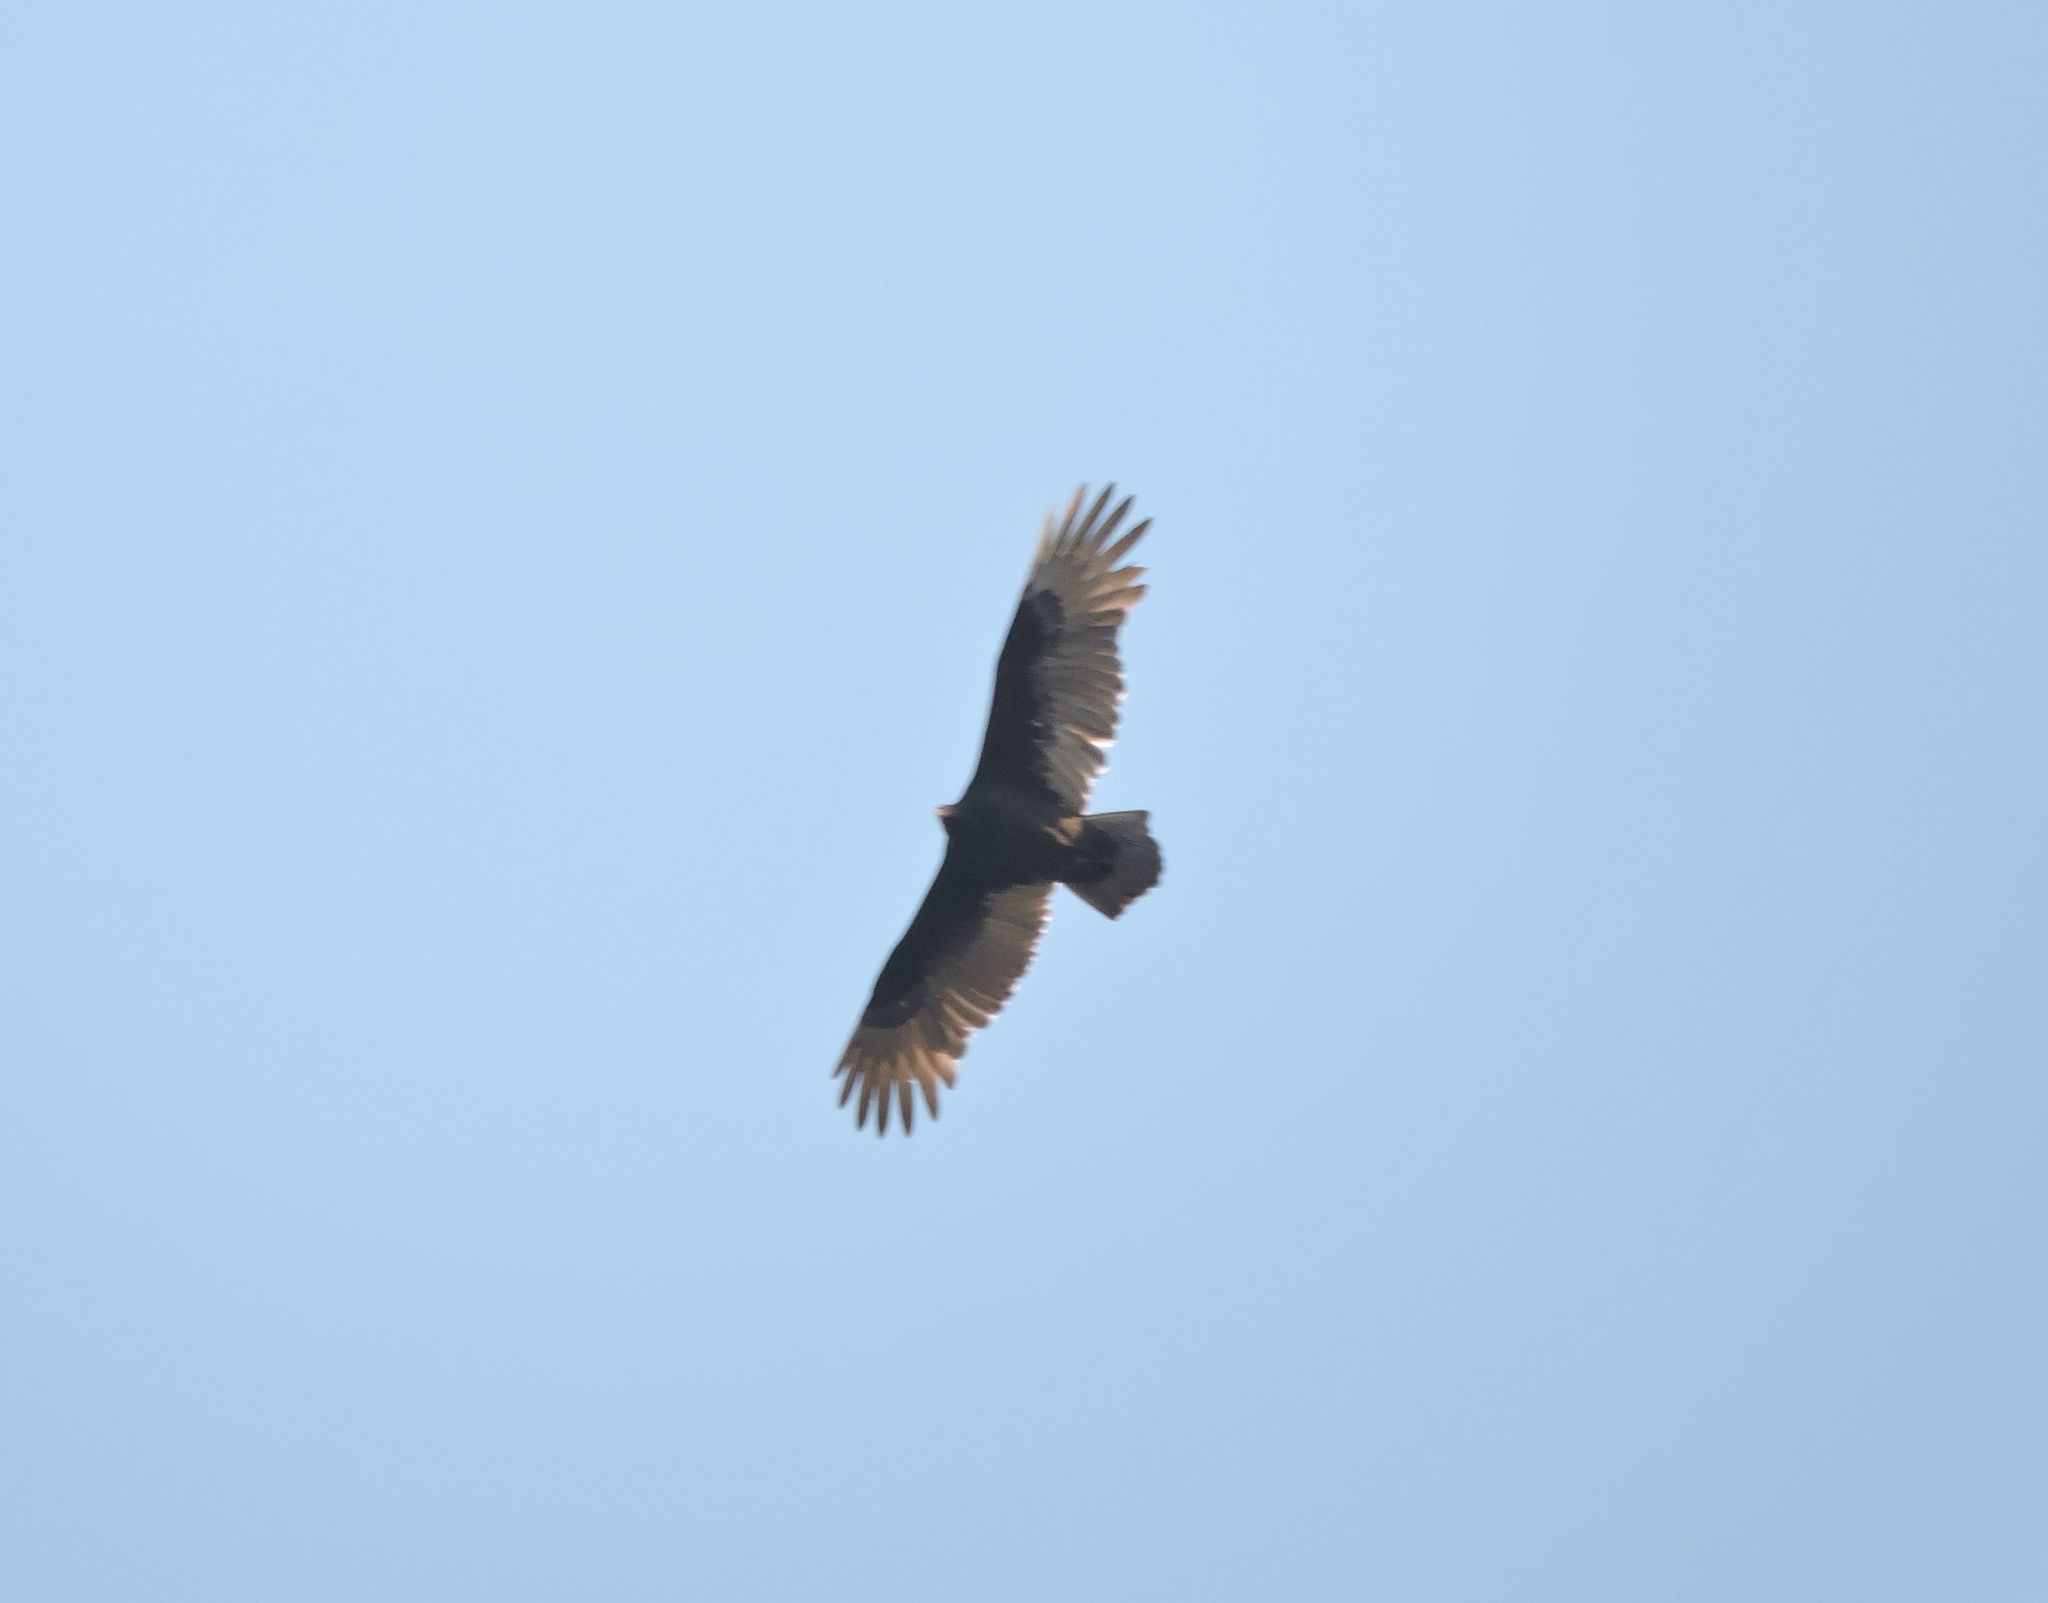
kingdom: Animalia
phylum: Chordata
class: Aves
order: Accipitriformes
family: Cathartidae
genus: Cathartes
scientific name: Cathartes aura
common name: Turkey vulture
